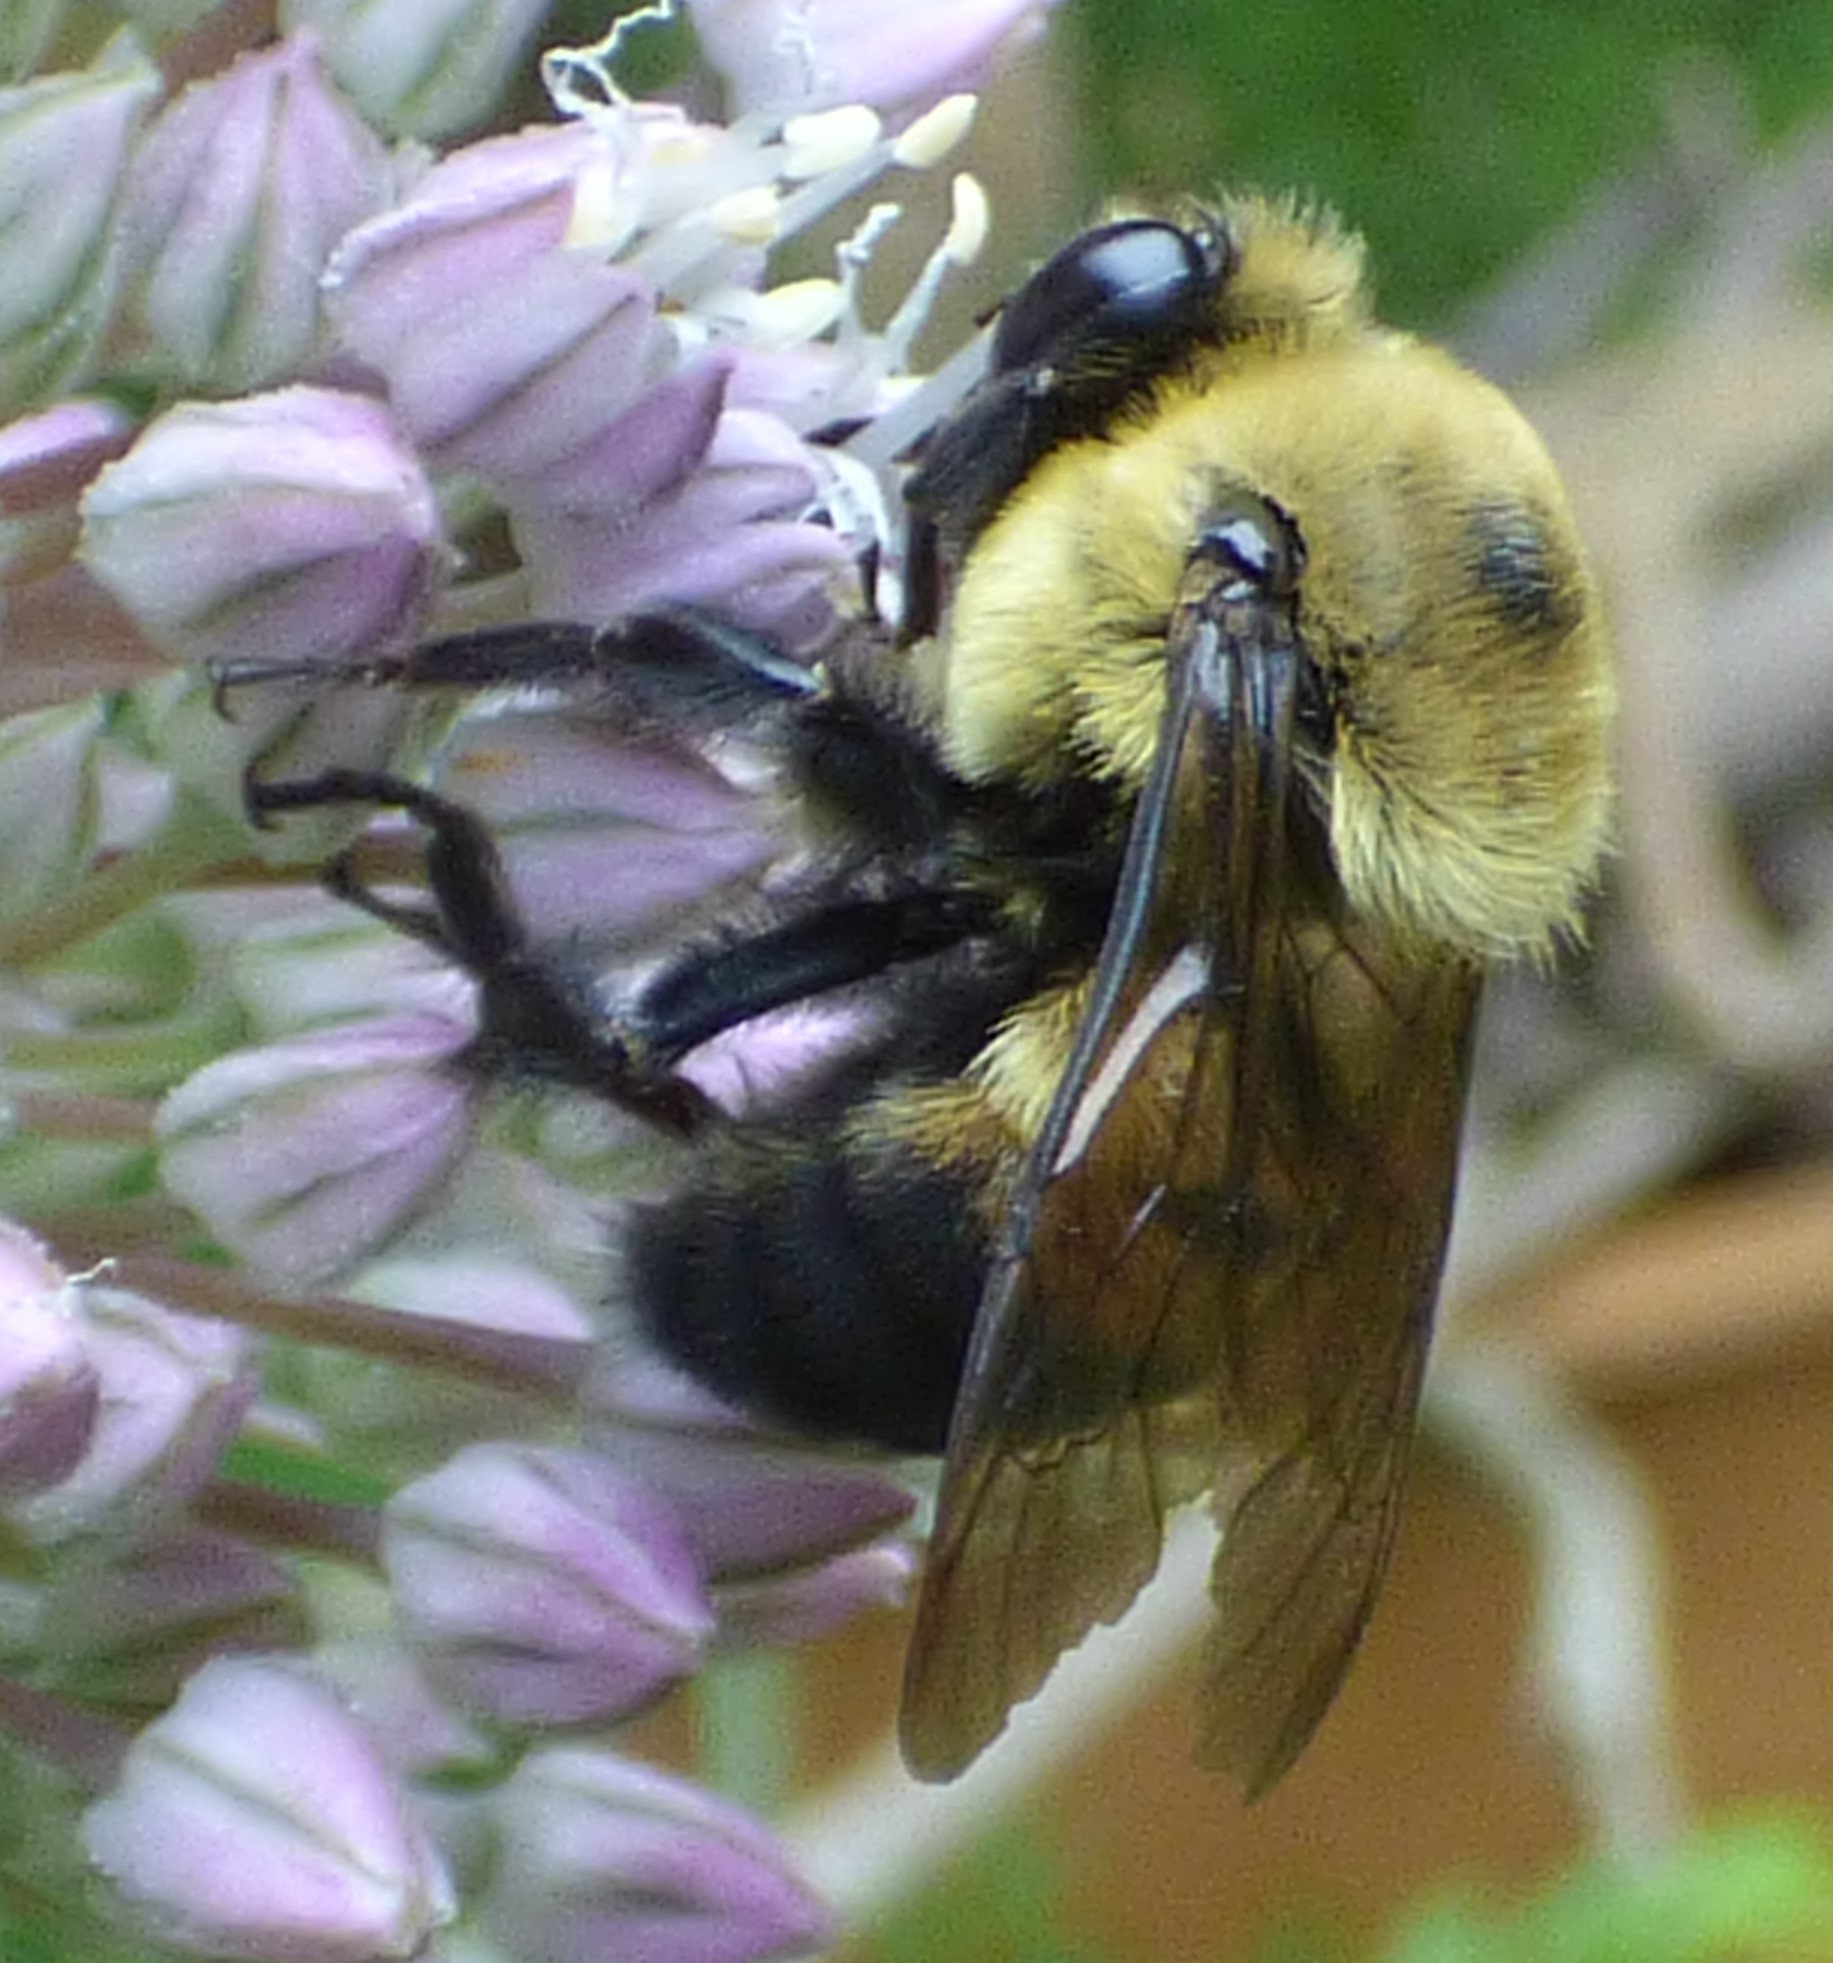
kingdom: Animalia
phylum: Arthropoda
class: Insecta
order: Hymenoptera
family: Apidae
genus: Bombus
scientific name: Bombus griseocollis
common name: Brown-belted bumble bee
